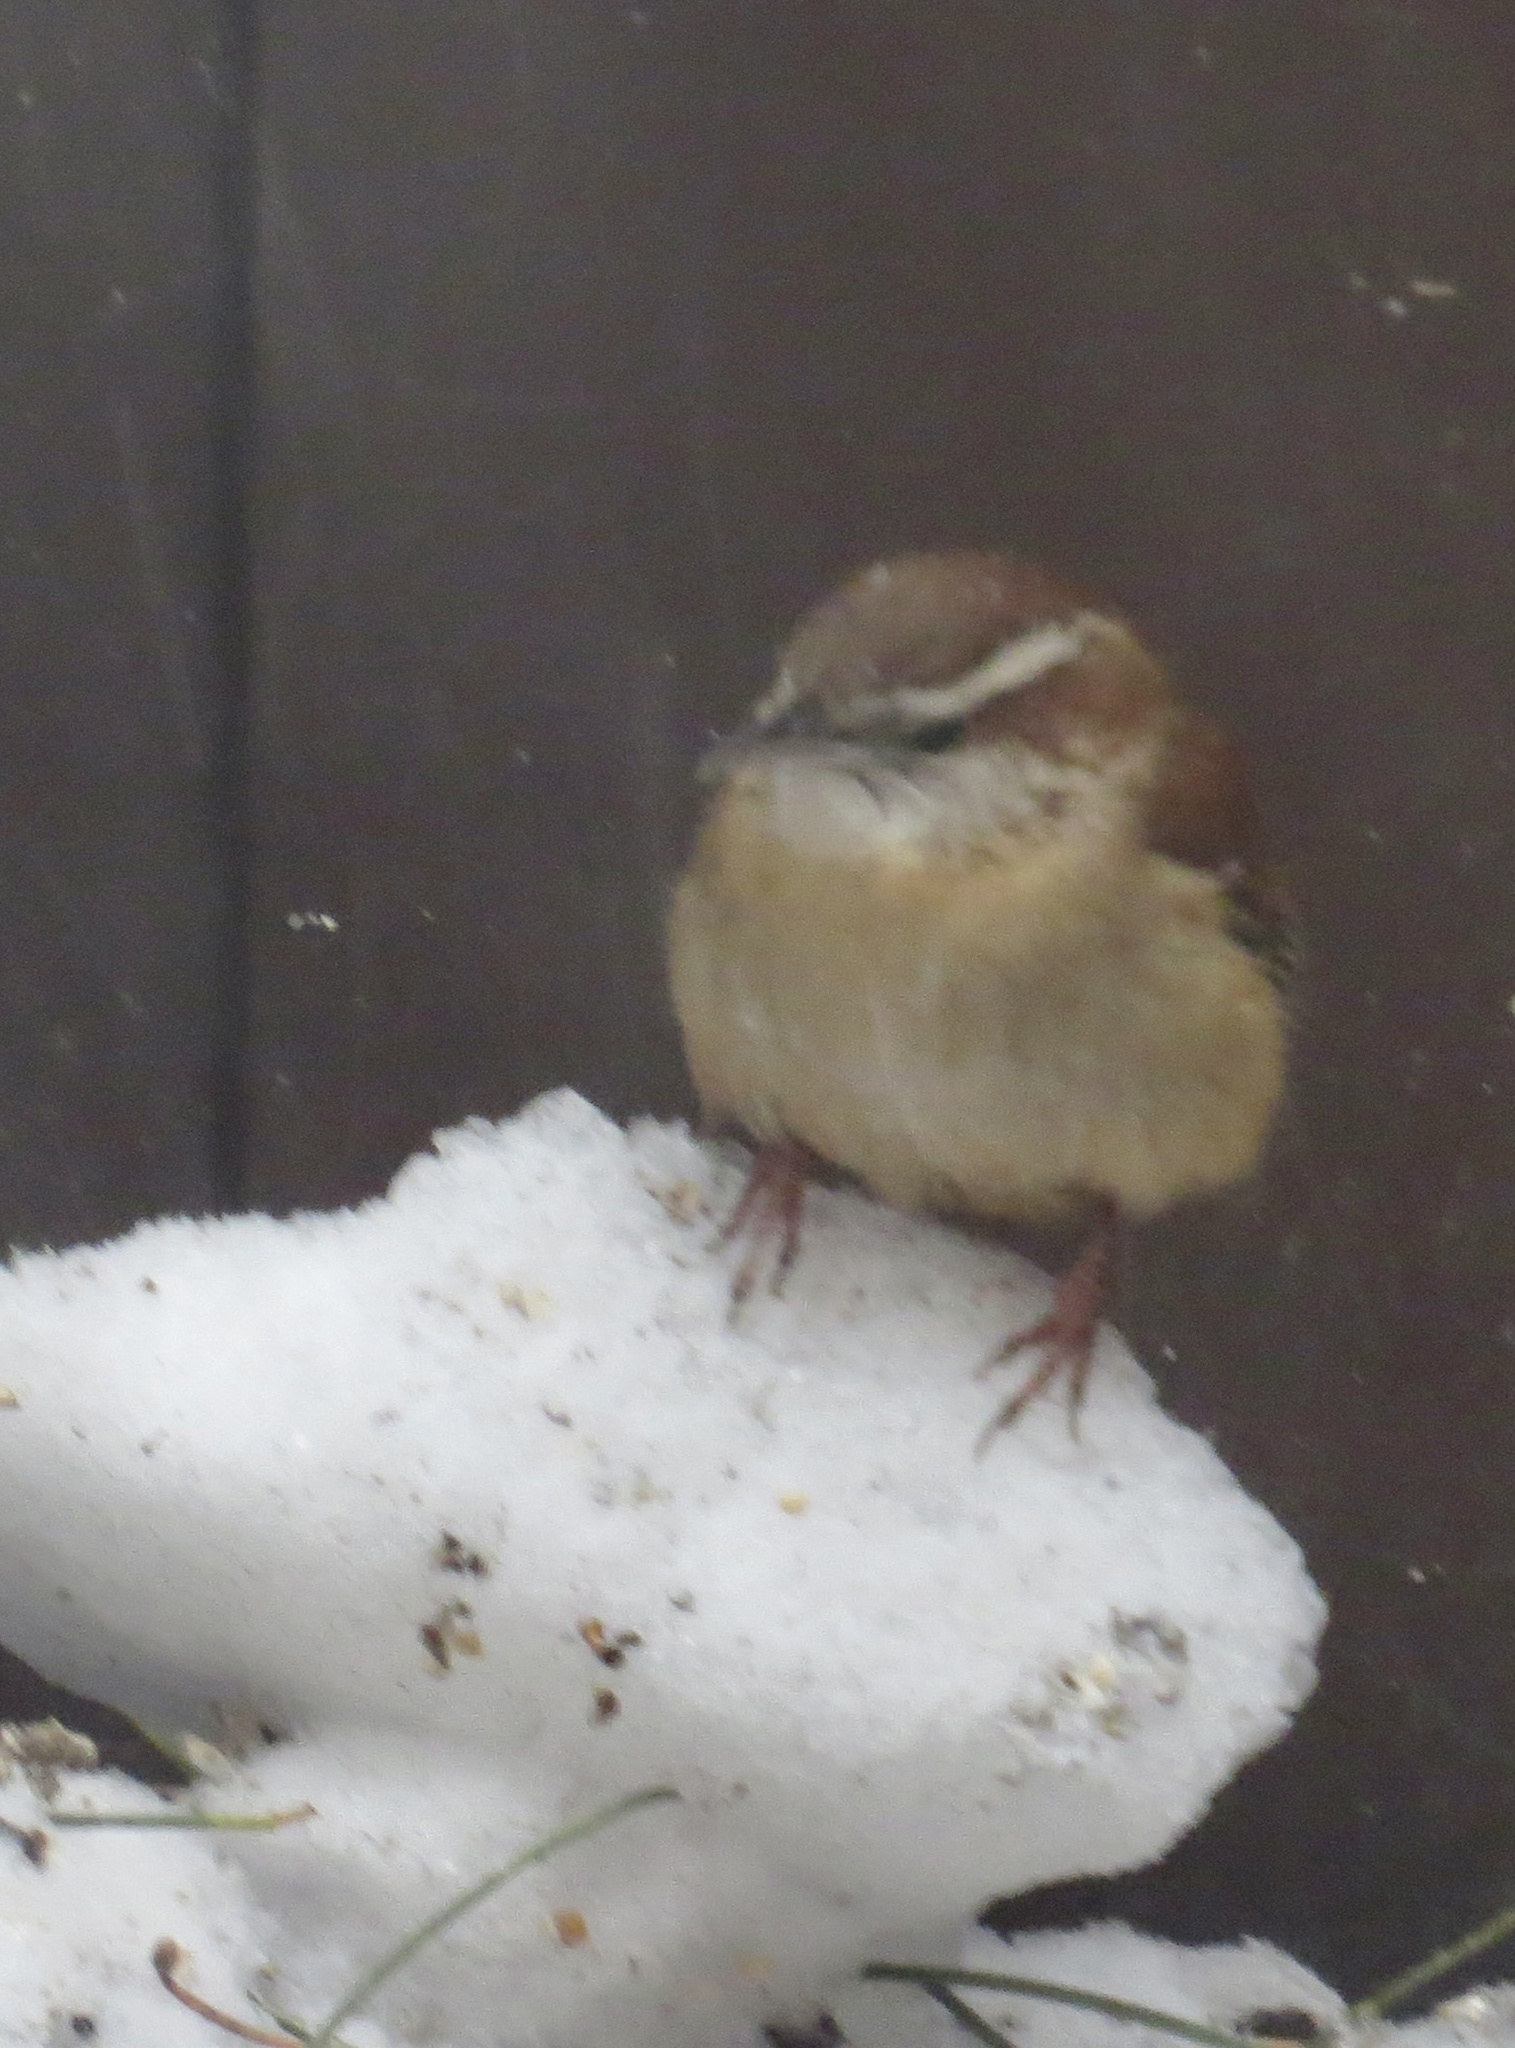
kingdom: Animalia
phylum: Chordata
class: Aves
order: Passeriformes
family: Troglodytidae
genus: Thryothorus
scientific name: Thryothorus ludovicianus
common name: Carolina wren
